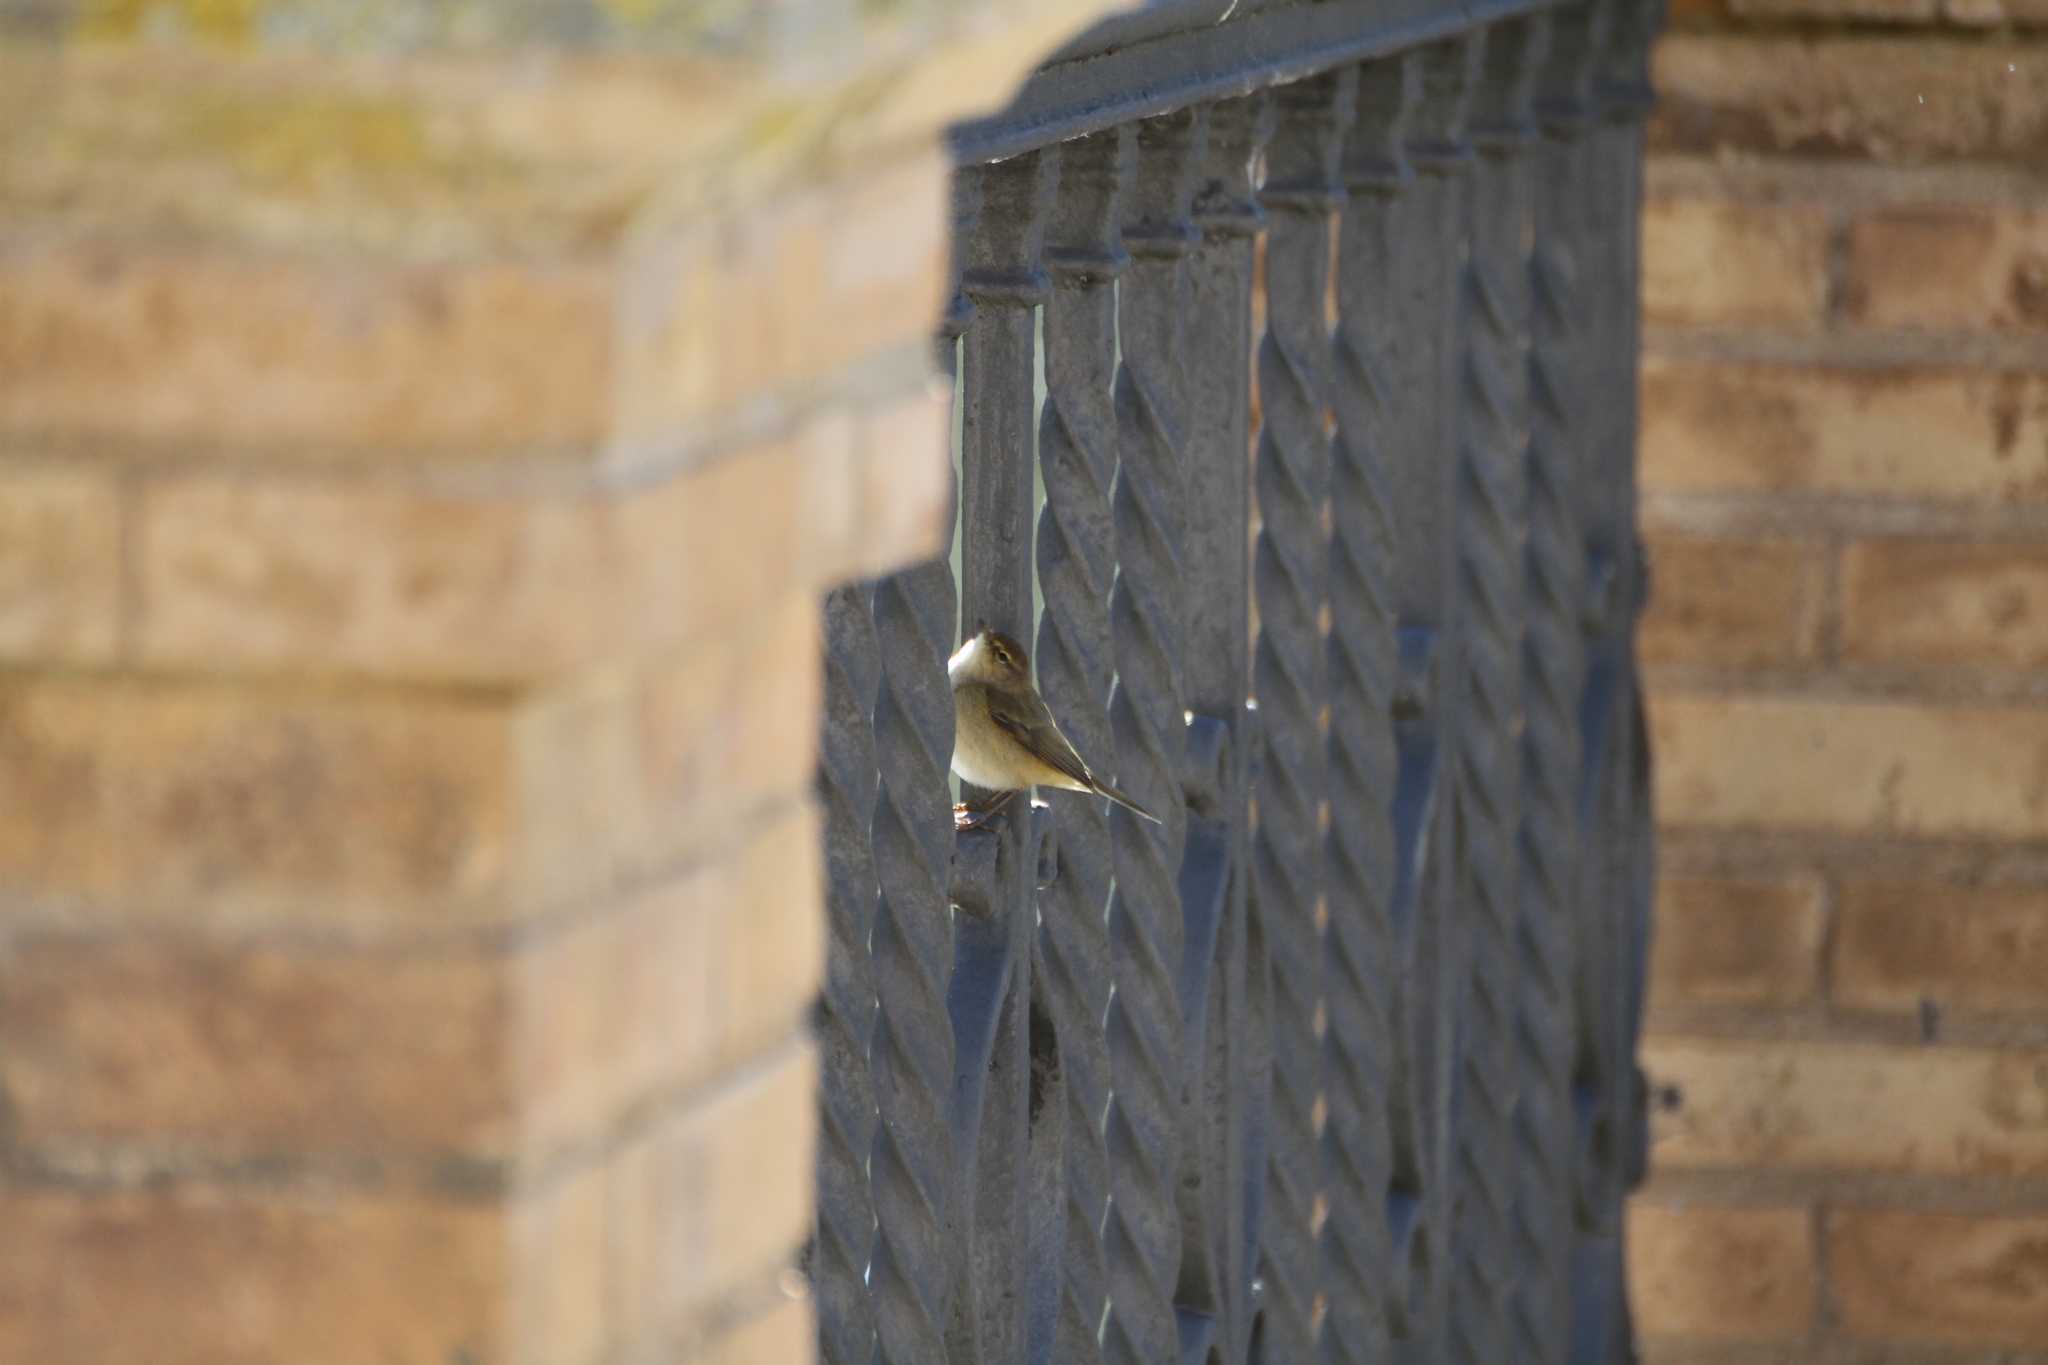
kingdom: Animalia
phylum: Chordata
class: Aves
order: Passeriformes
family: Phylloscopidae
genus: Phylloscopus
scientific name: Phylloscopus collybita
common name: Common chiffchaff
